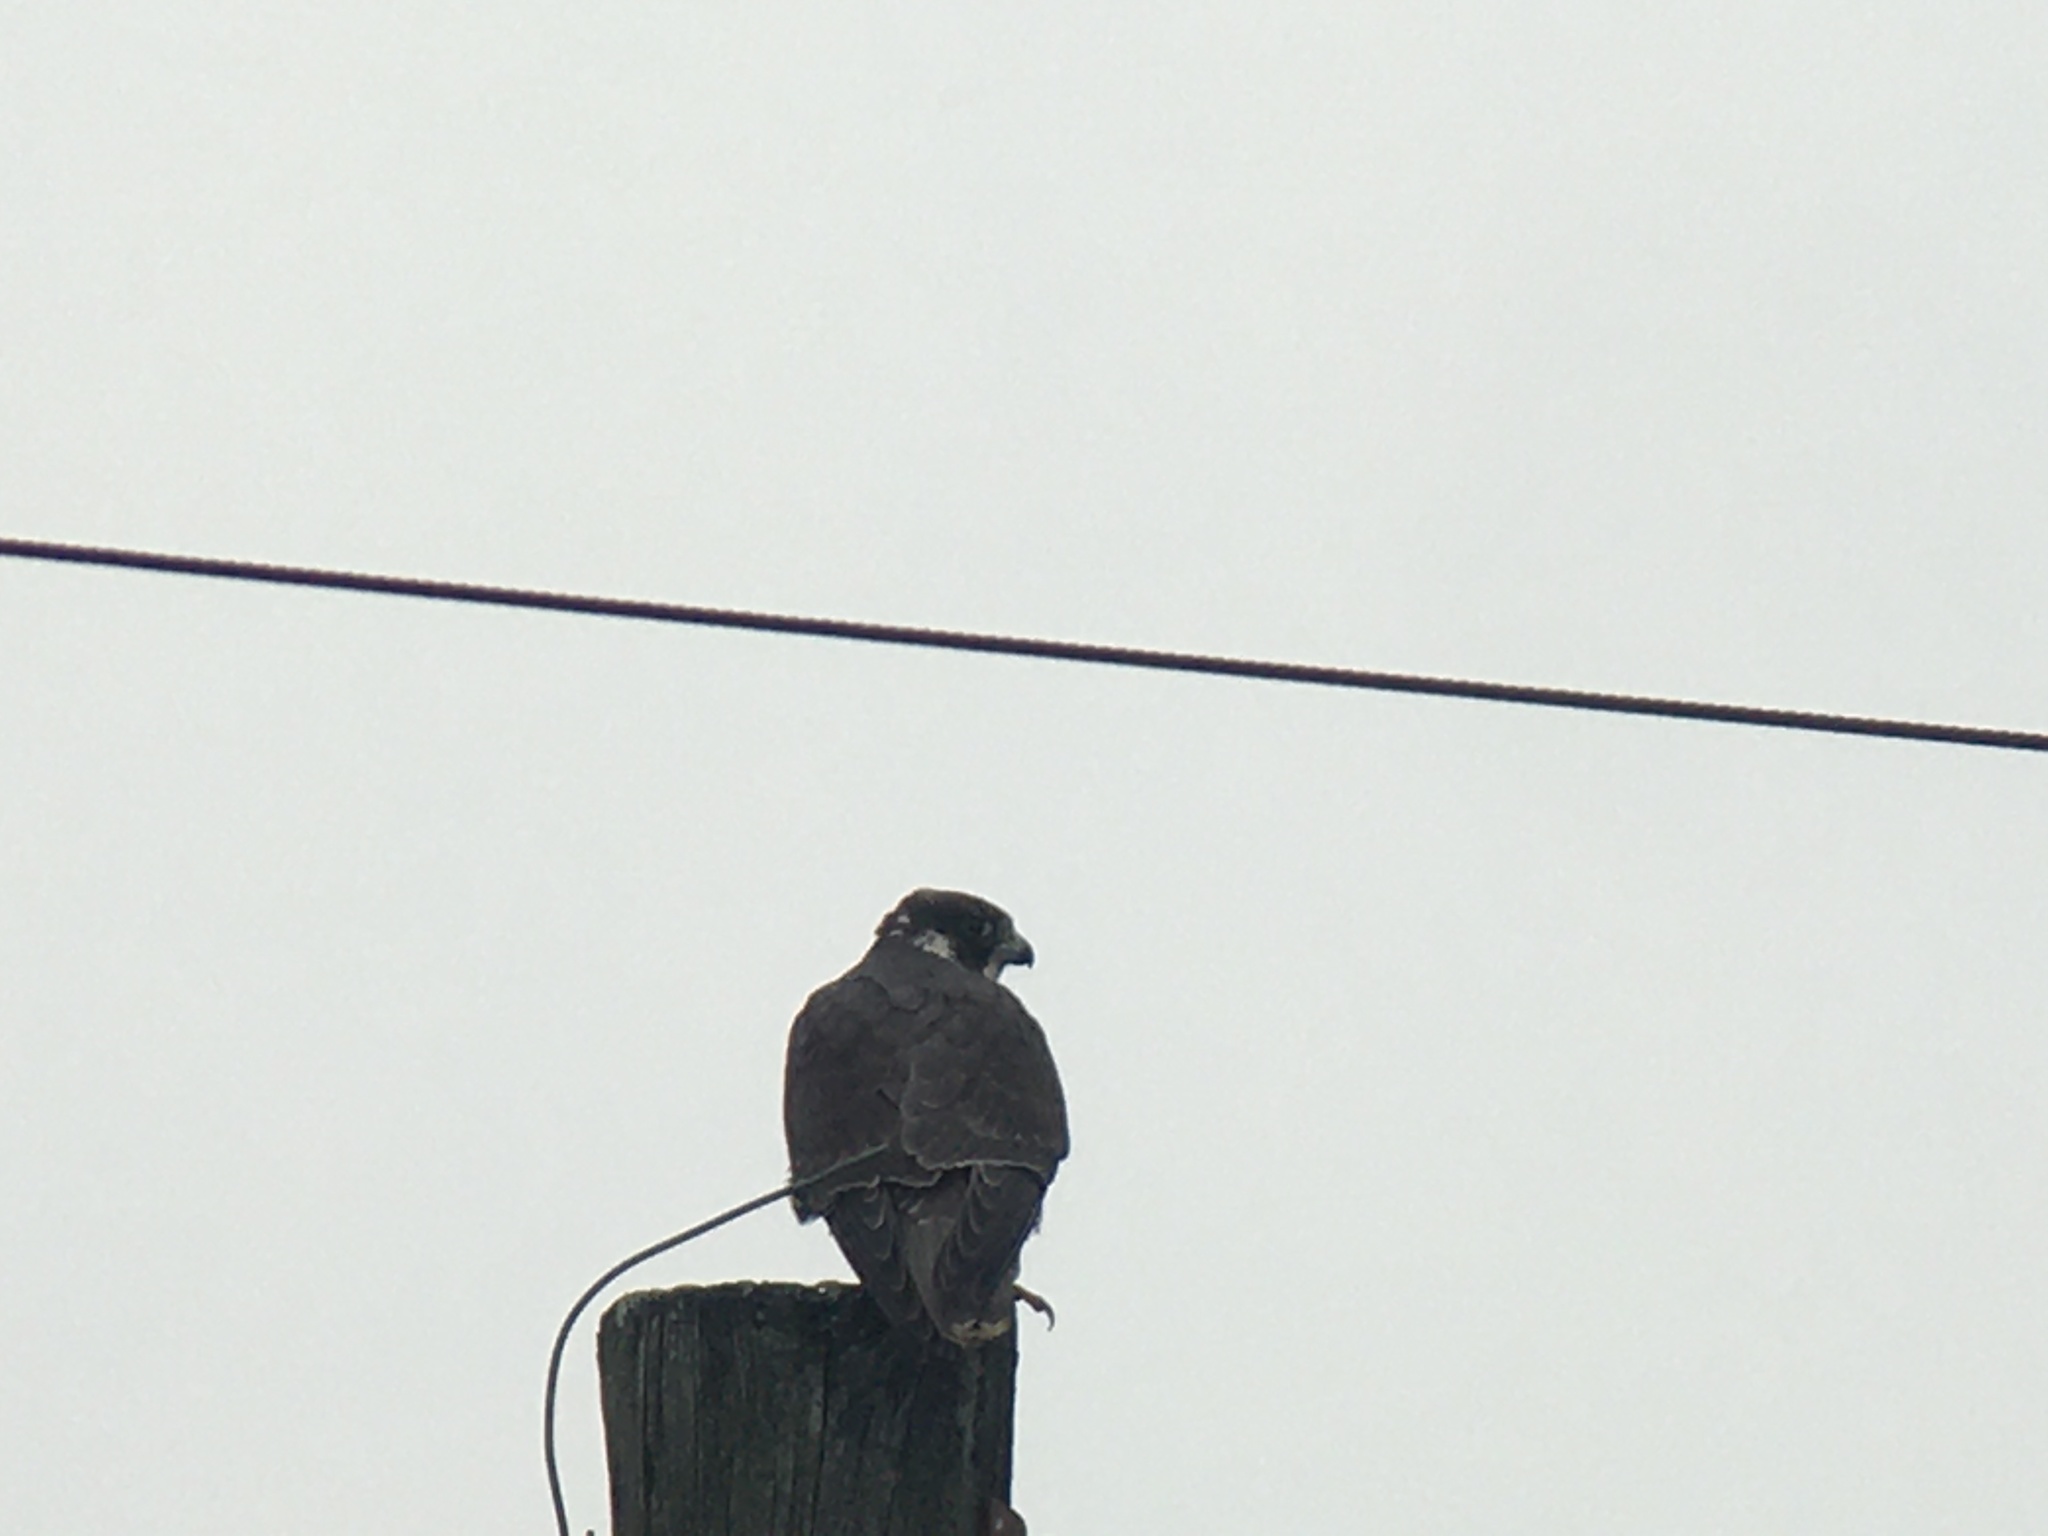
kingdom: Animalia
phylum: Chordata
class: Aves
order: Falconiformes
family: Falconidae
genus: Falco
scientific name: Falco peregrinus
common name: Peregrine falcon
